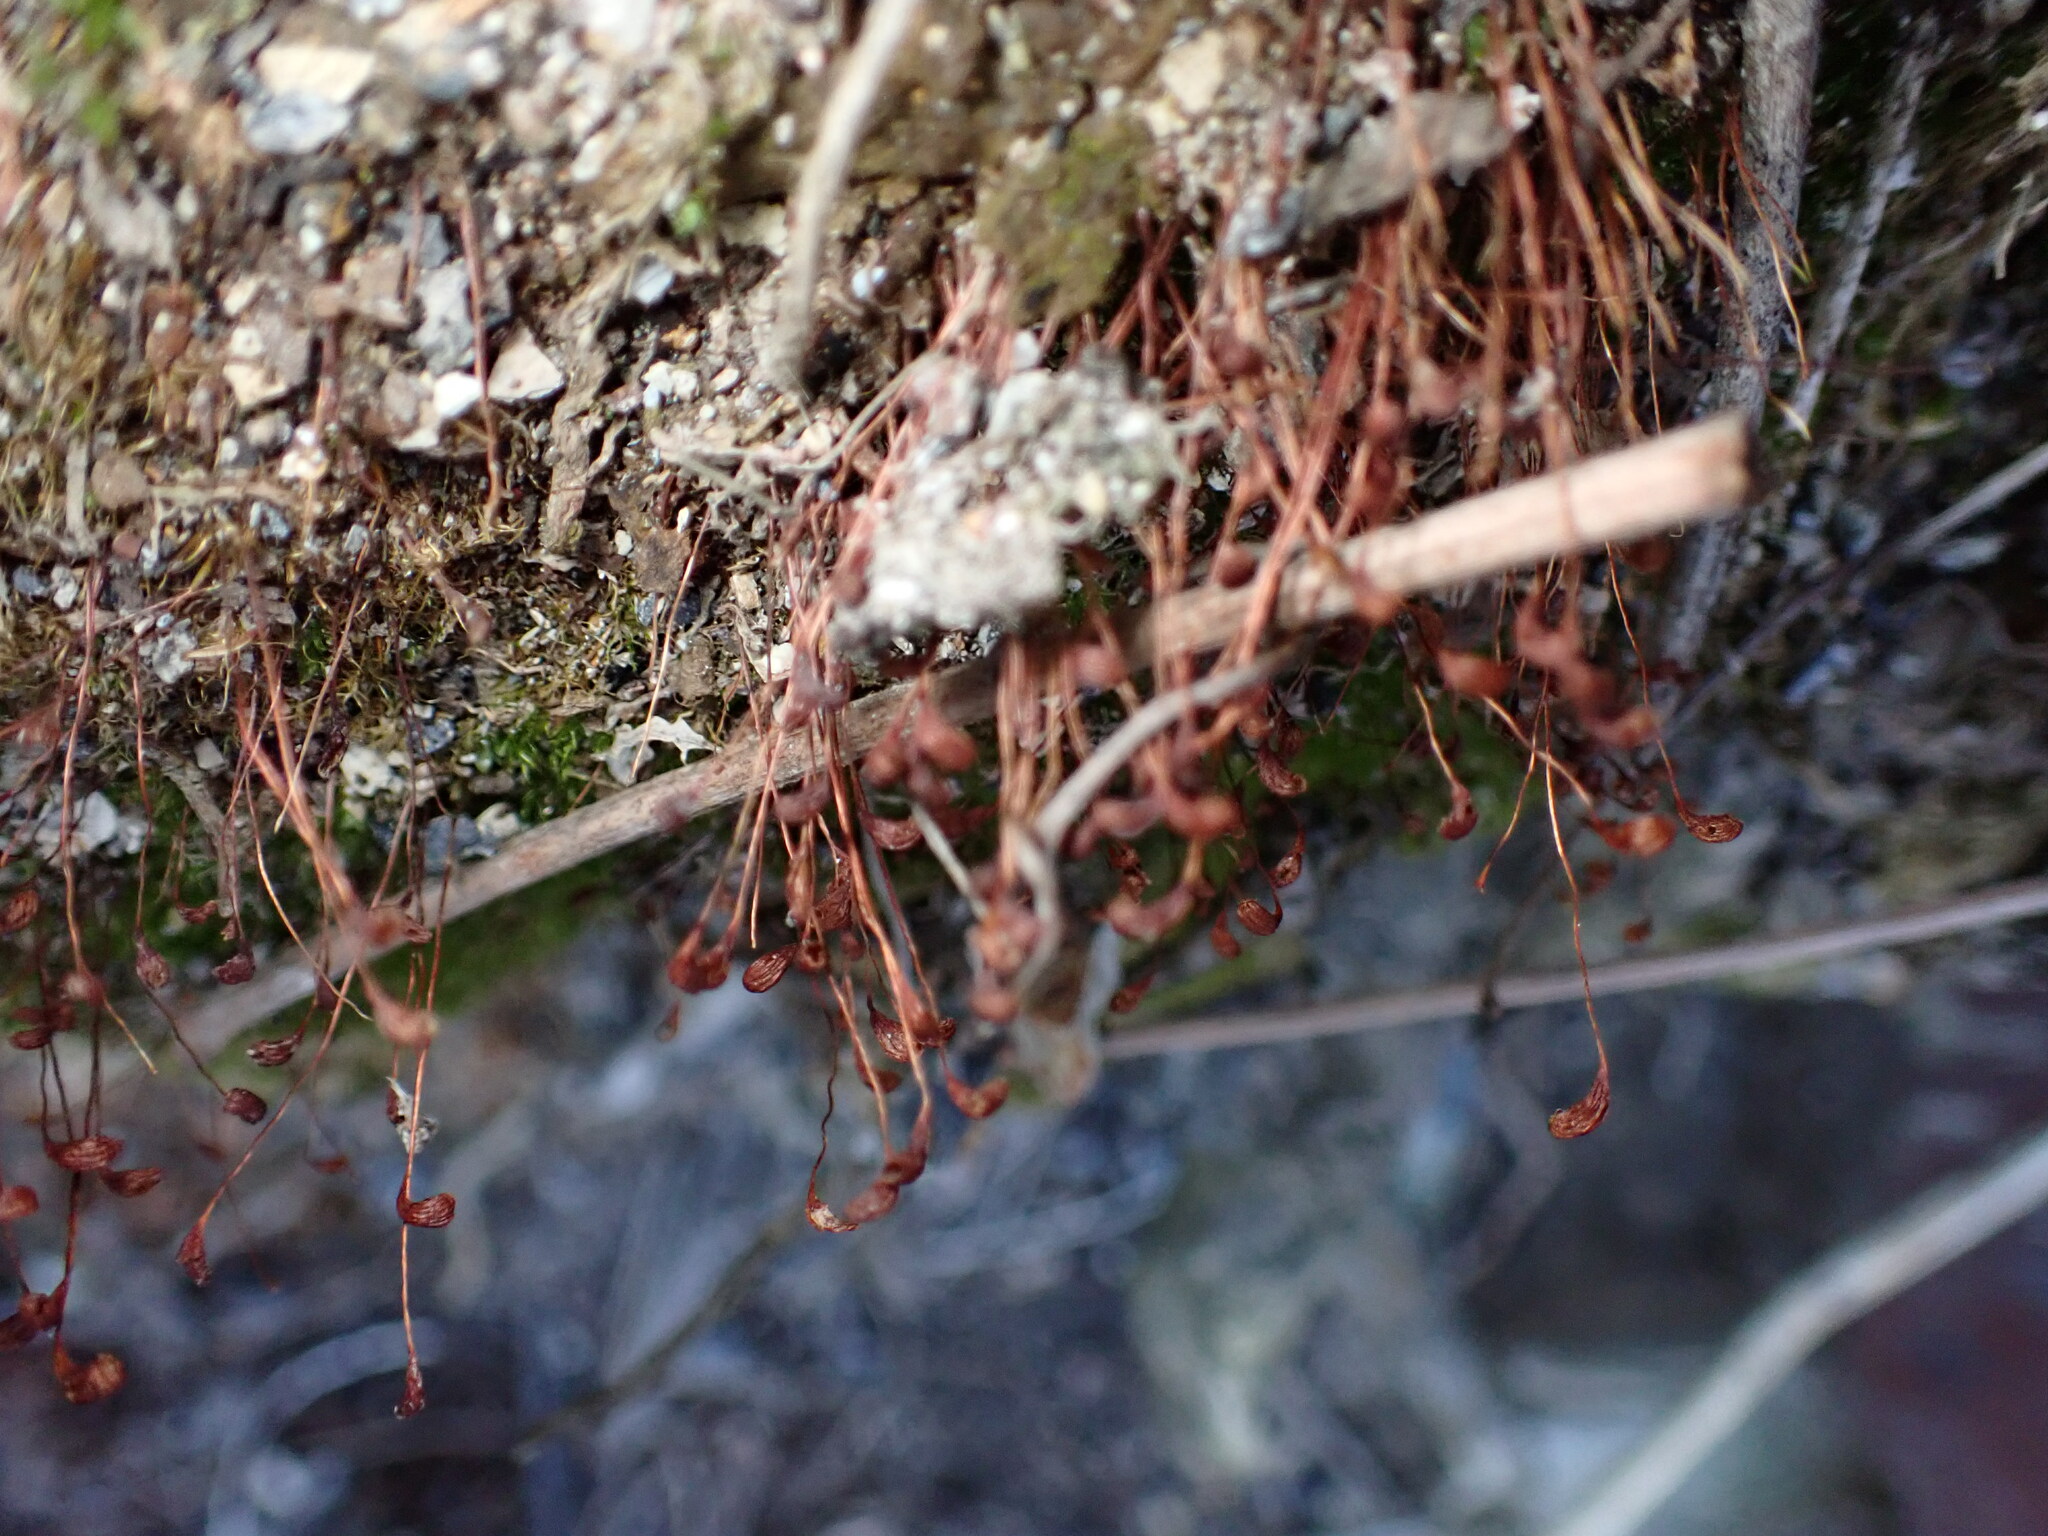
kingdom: Plantae
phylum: Bryophyta
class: Bryopsida
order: Funariales
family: Funariaceae
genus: Funaria
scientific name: Funaria hygrometrica
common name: Common cord moss
